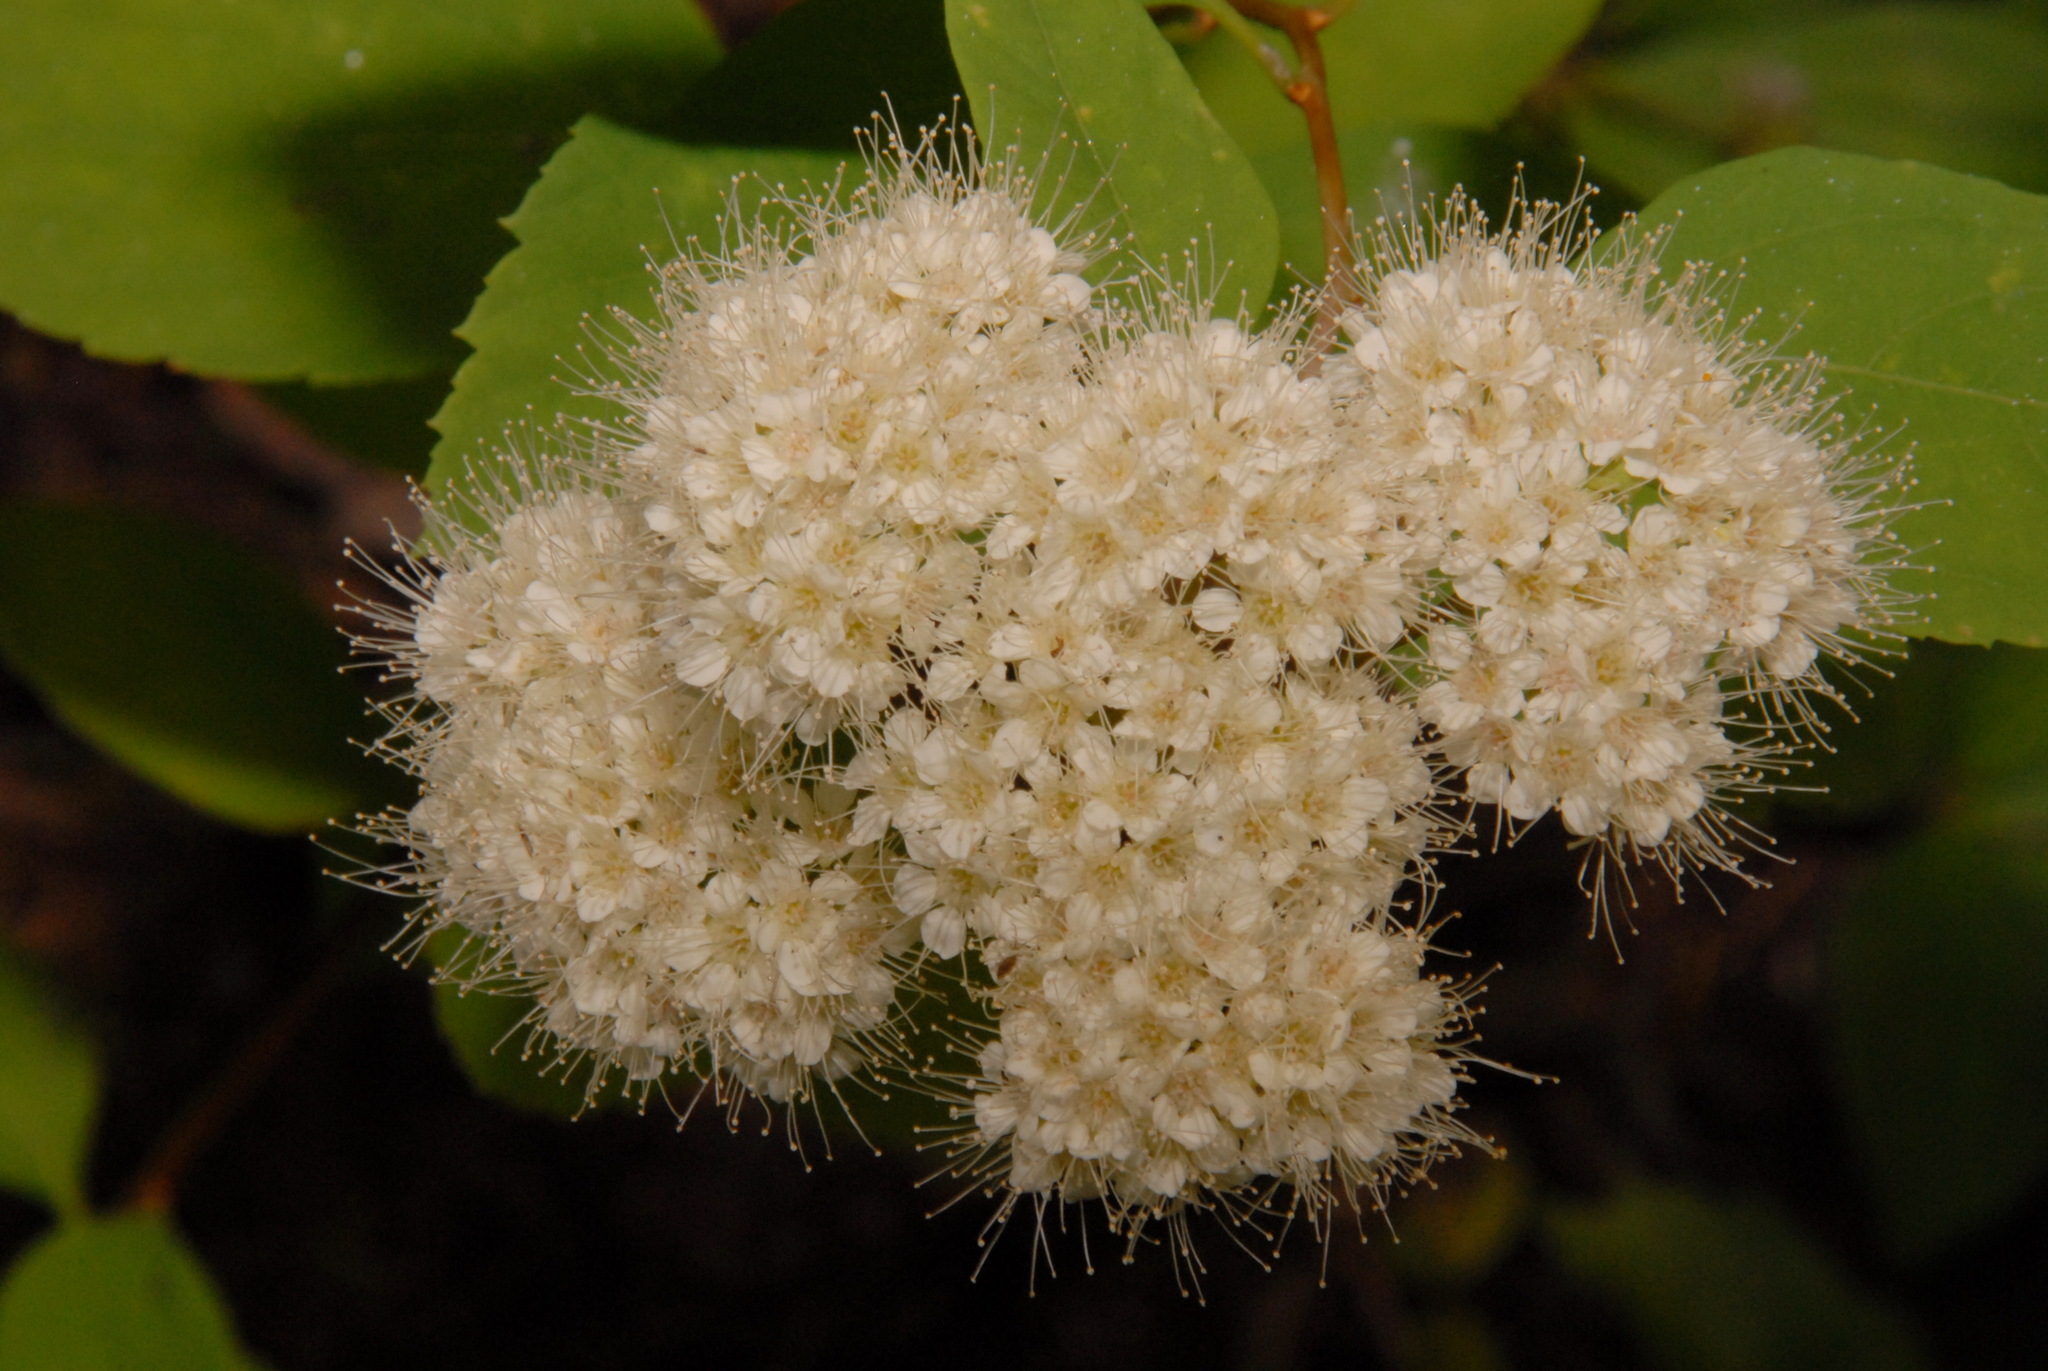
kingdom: Plantae
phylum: Tracheophyta
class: Magnoliopsida
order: Rosales
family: Rosaceae
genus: Spiraea
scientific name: Spiraea lucida
